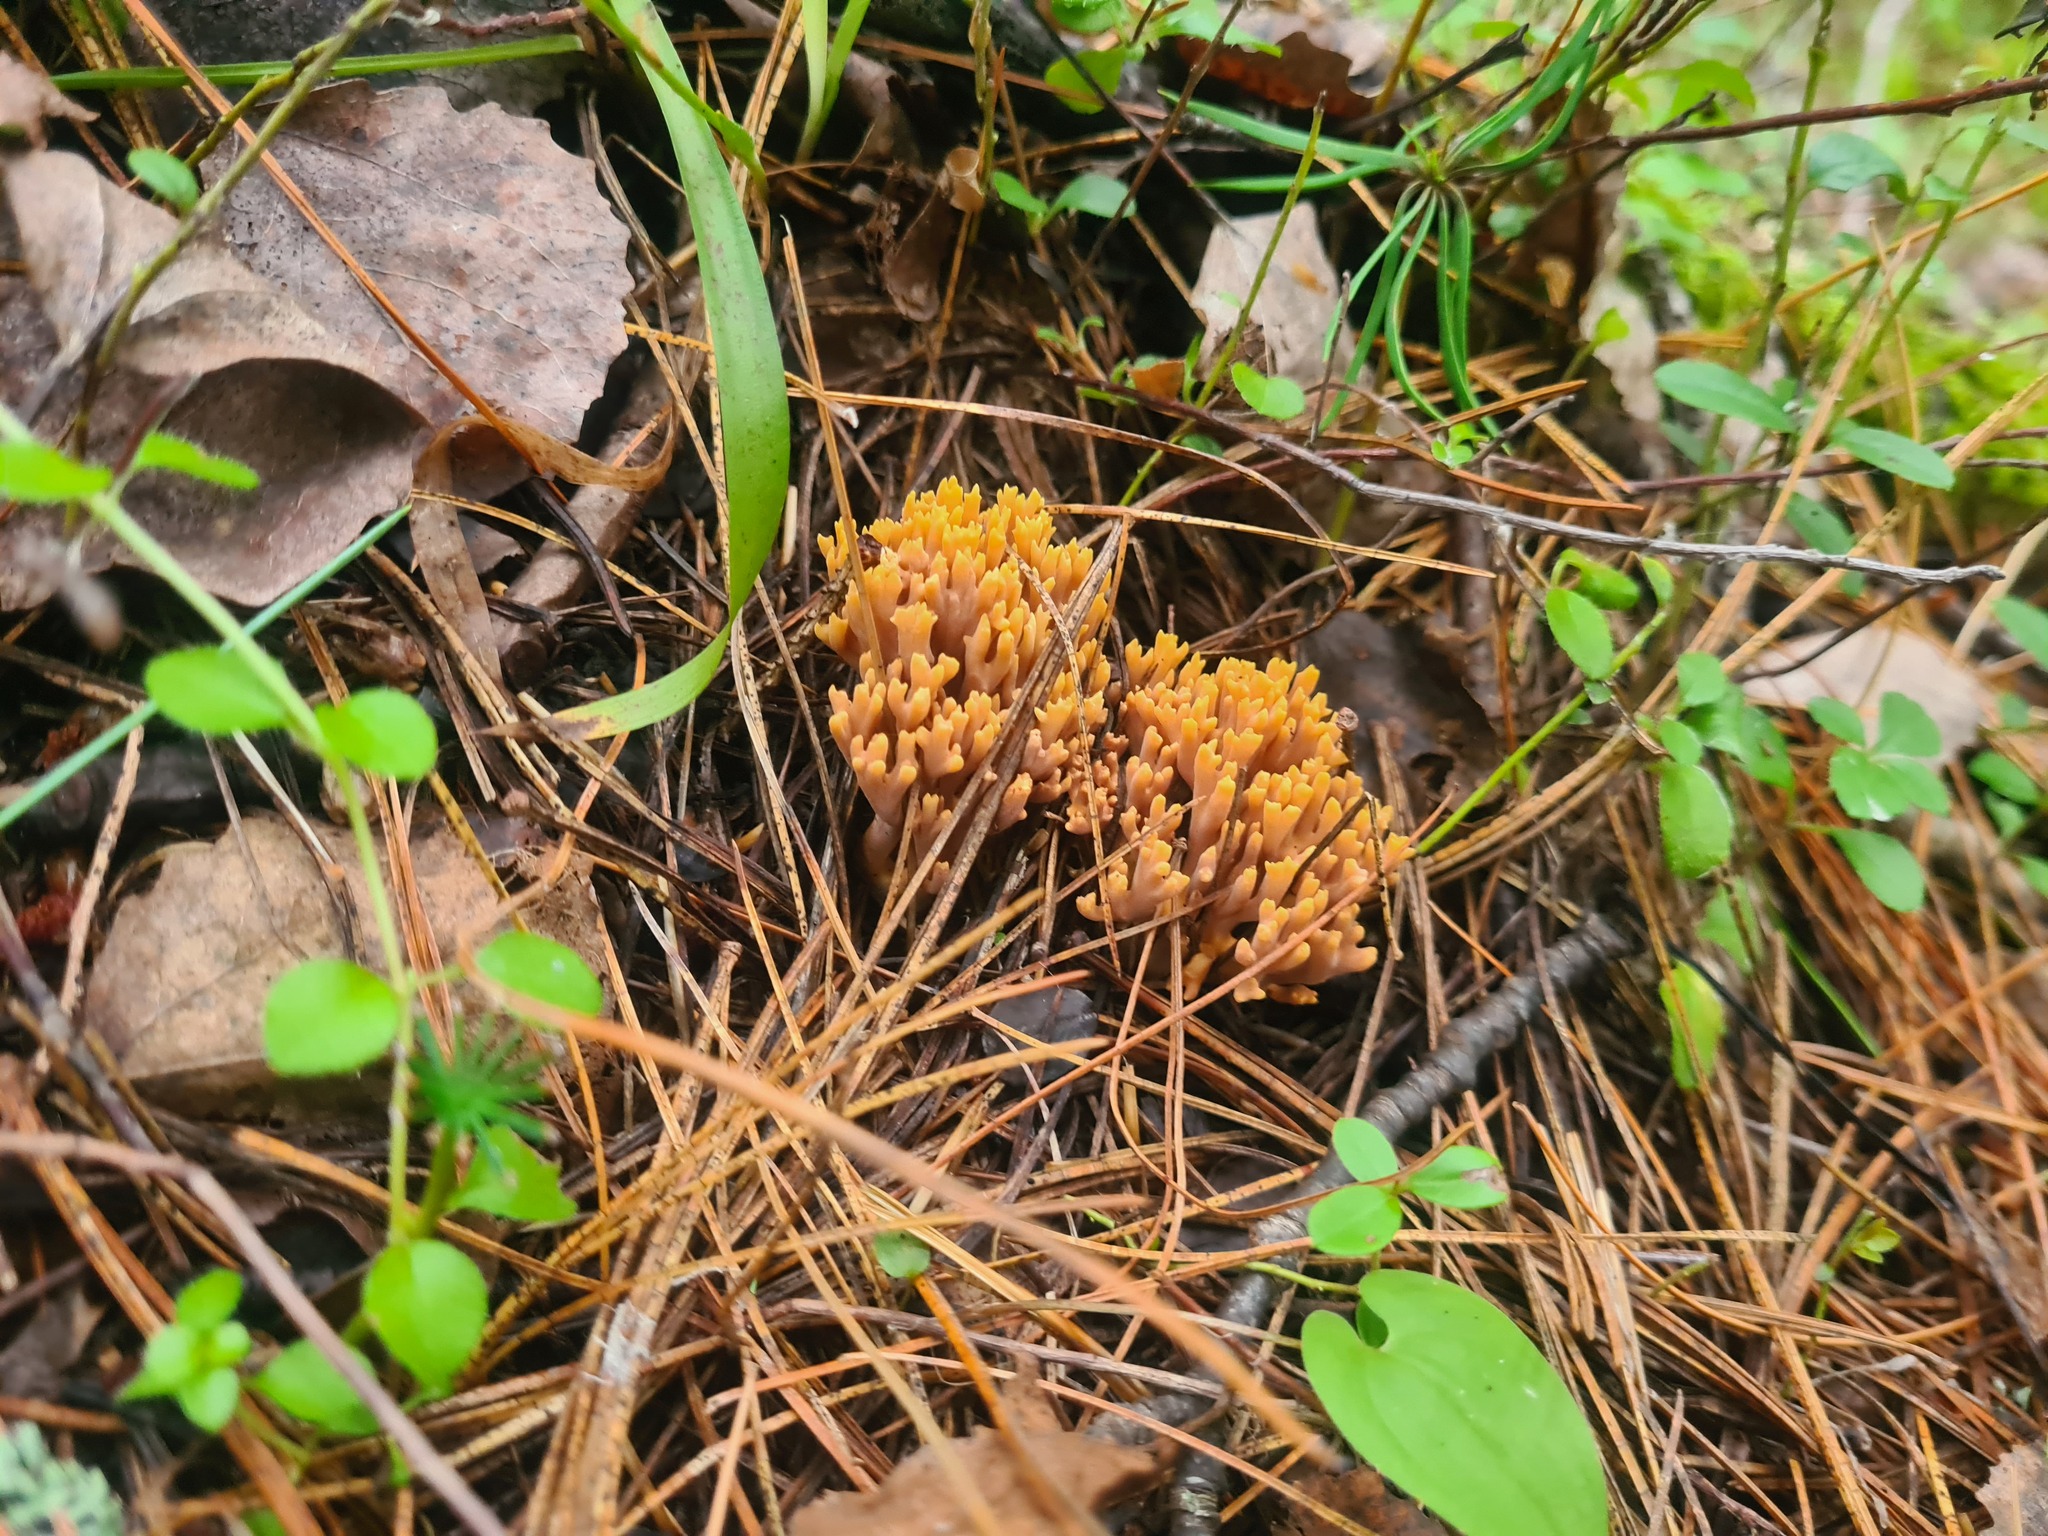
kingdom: Fungi
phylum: Basidiomycota
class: Agaricomycetes
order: Gomphales
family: Gomphaceae
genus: Ramaria
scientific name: Ramaria testaceoflava
